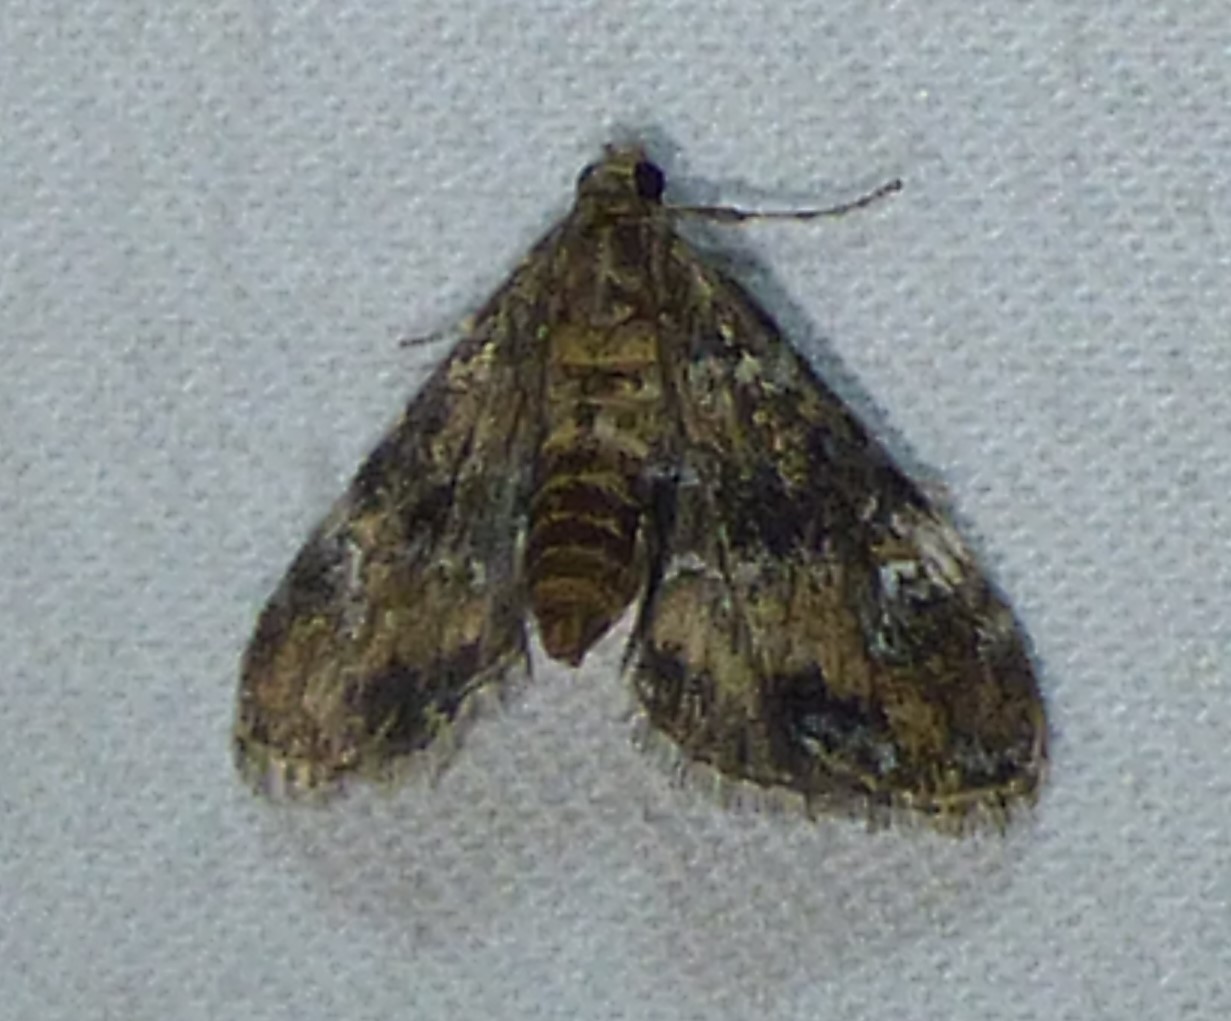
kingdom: Animalia
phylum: Arthropoda
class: Insecta
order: Lepidoptera
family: Crambidae
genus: Elophila
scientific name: Elophila obliteralis
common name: Waterlily leafcutter moth
